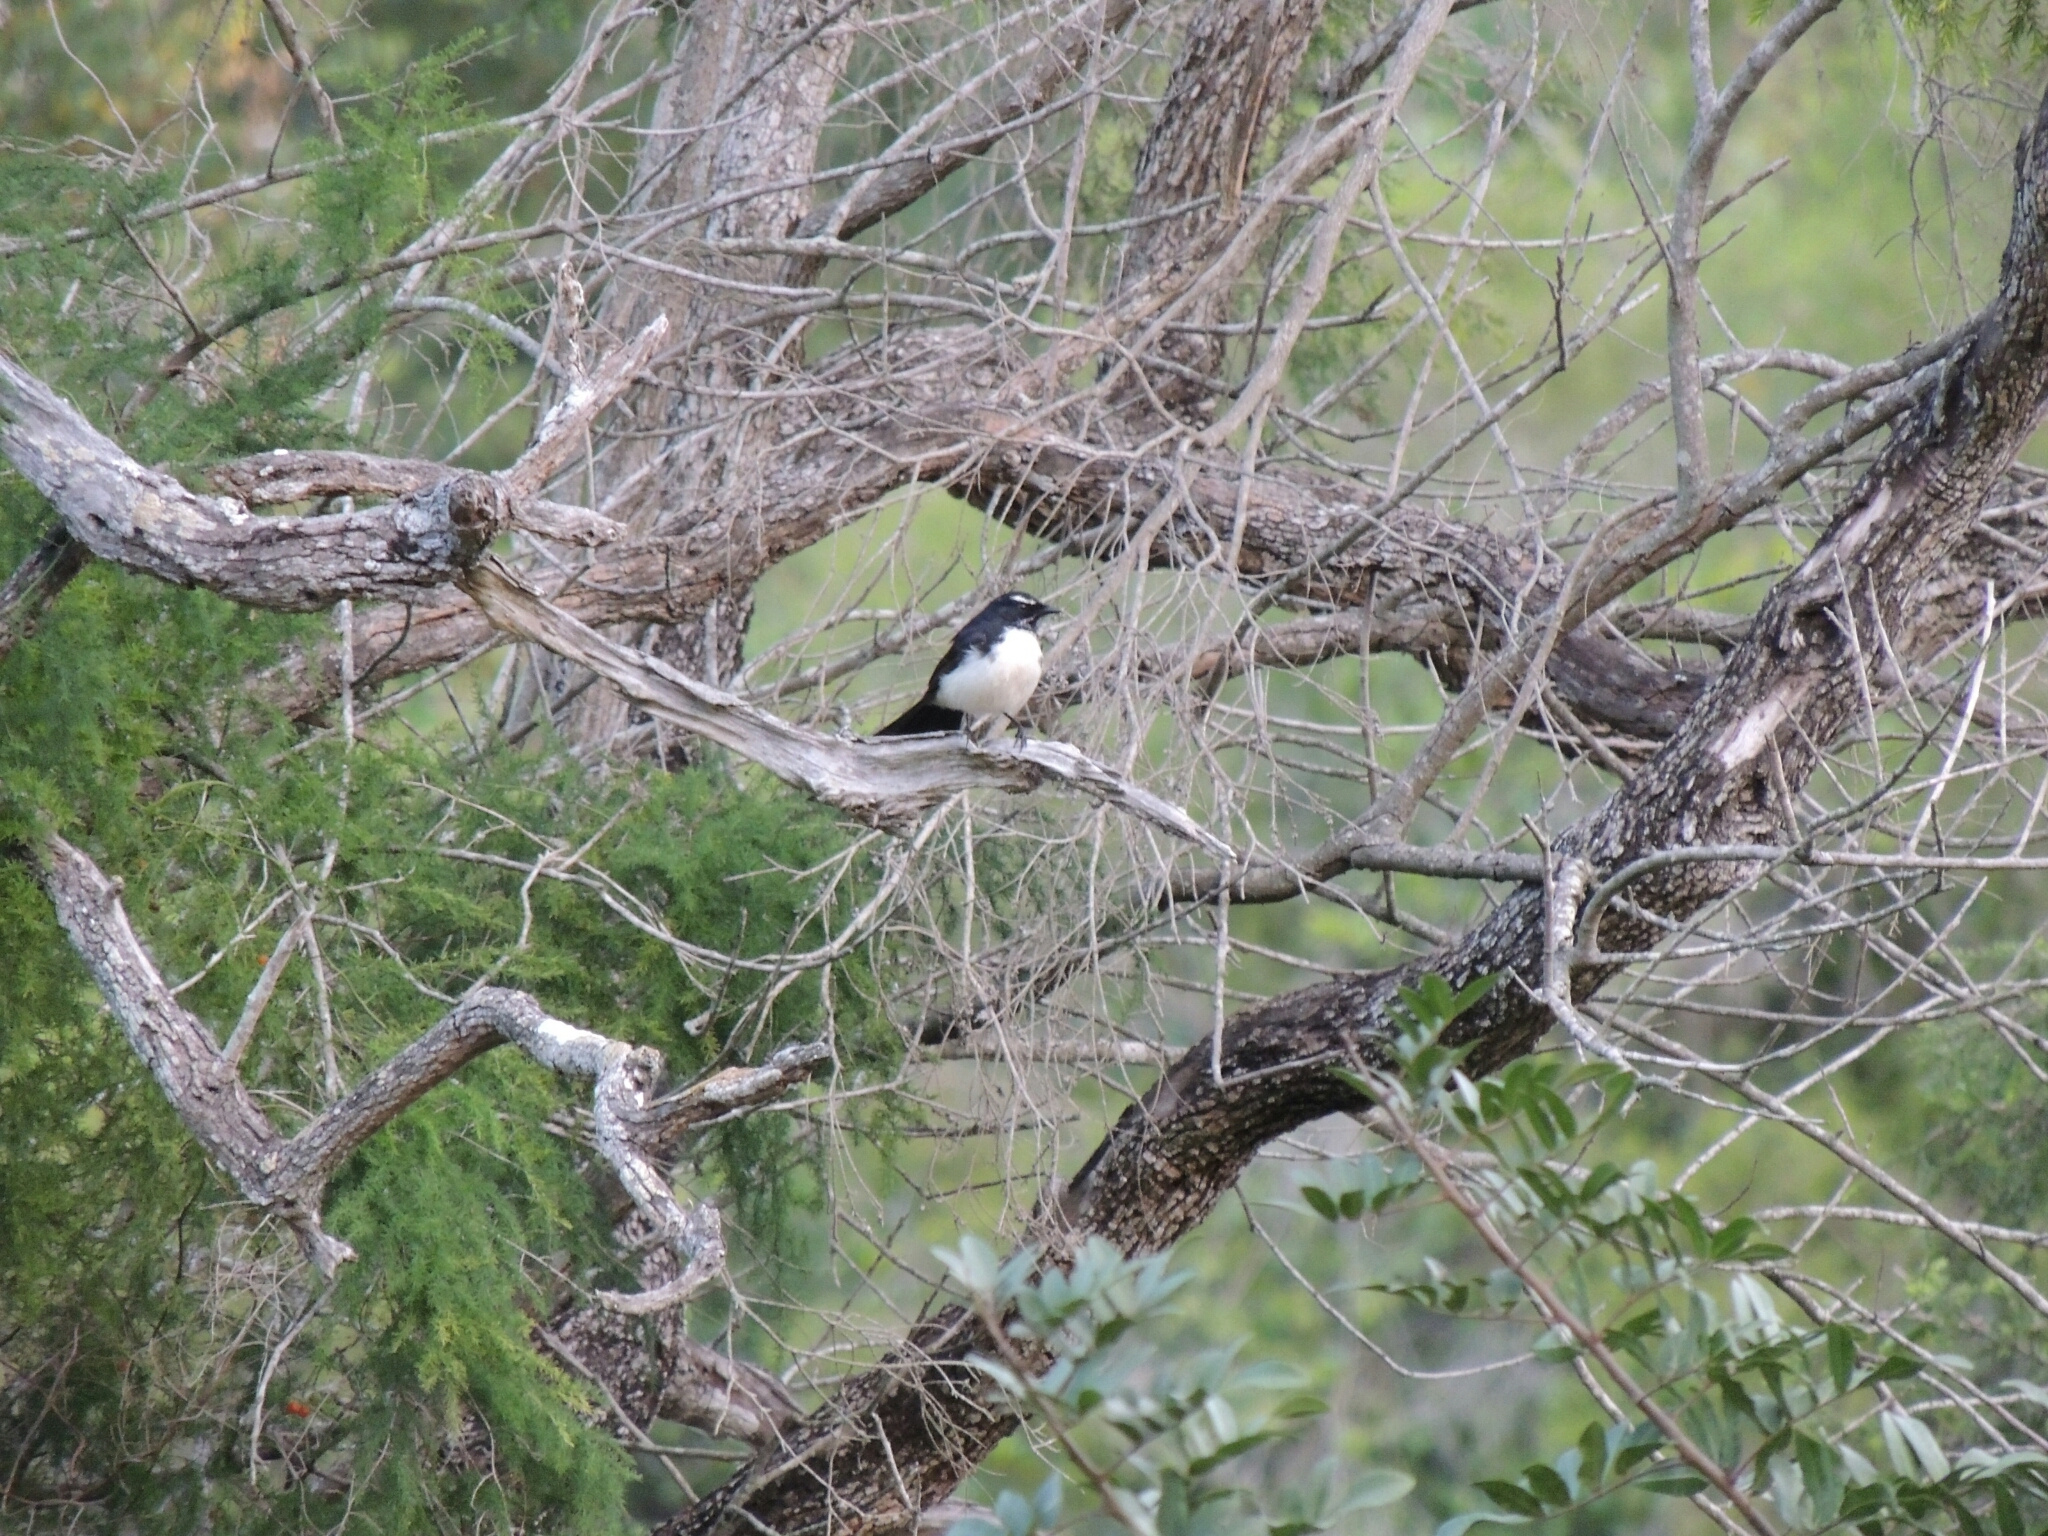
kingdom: Animalia
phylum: Chordata
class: Aves
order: Passeriformes
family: Rhipiduridae
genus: Rhipidura
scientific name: Rhipidura leucophrys
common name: Willie wagtail
